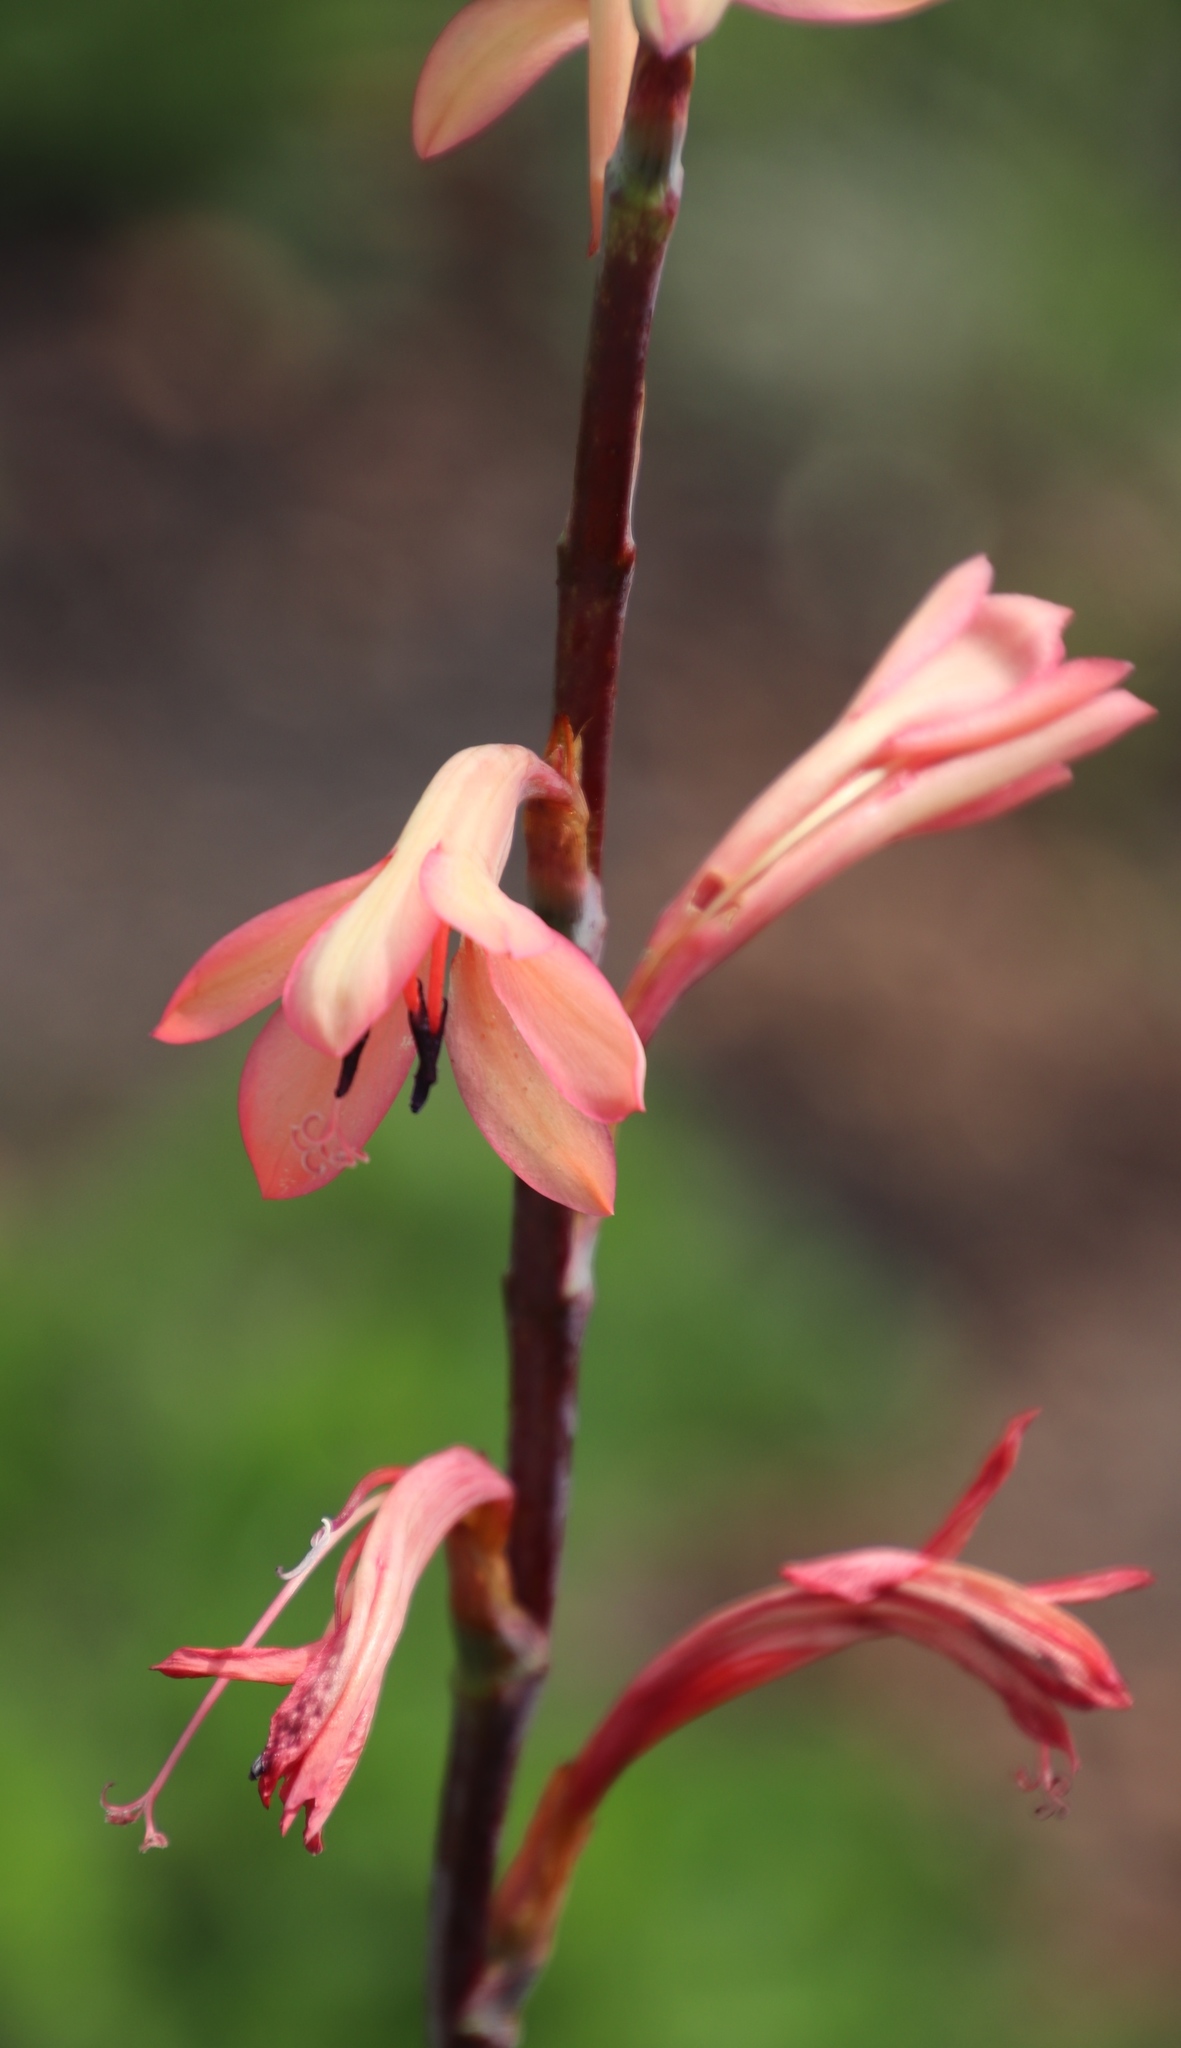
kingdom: Plantae
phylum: Tracheophyta
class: Liliopsida
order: Asparagales
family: Iridaceae
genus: Watsonia
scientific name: Watsonia meriana
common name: Bulbil bugle-lily
